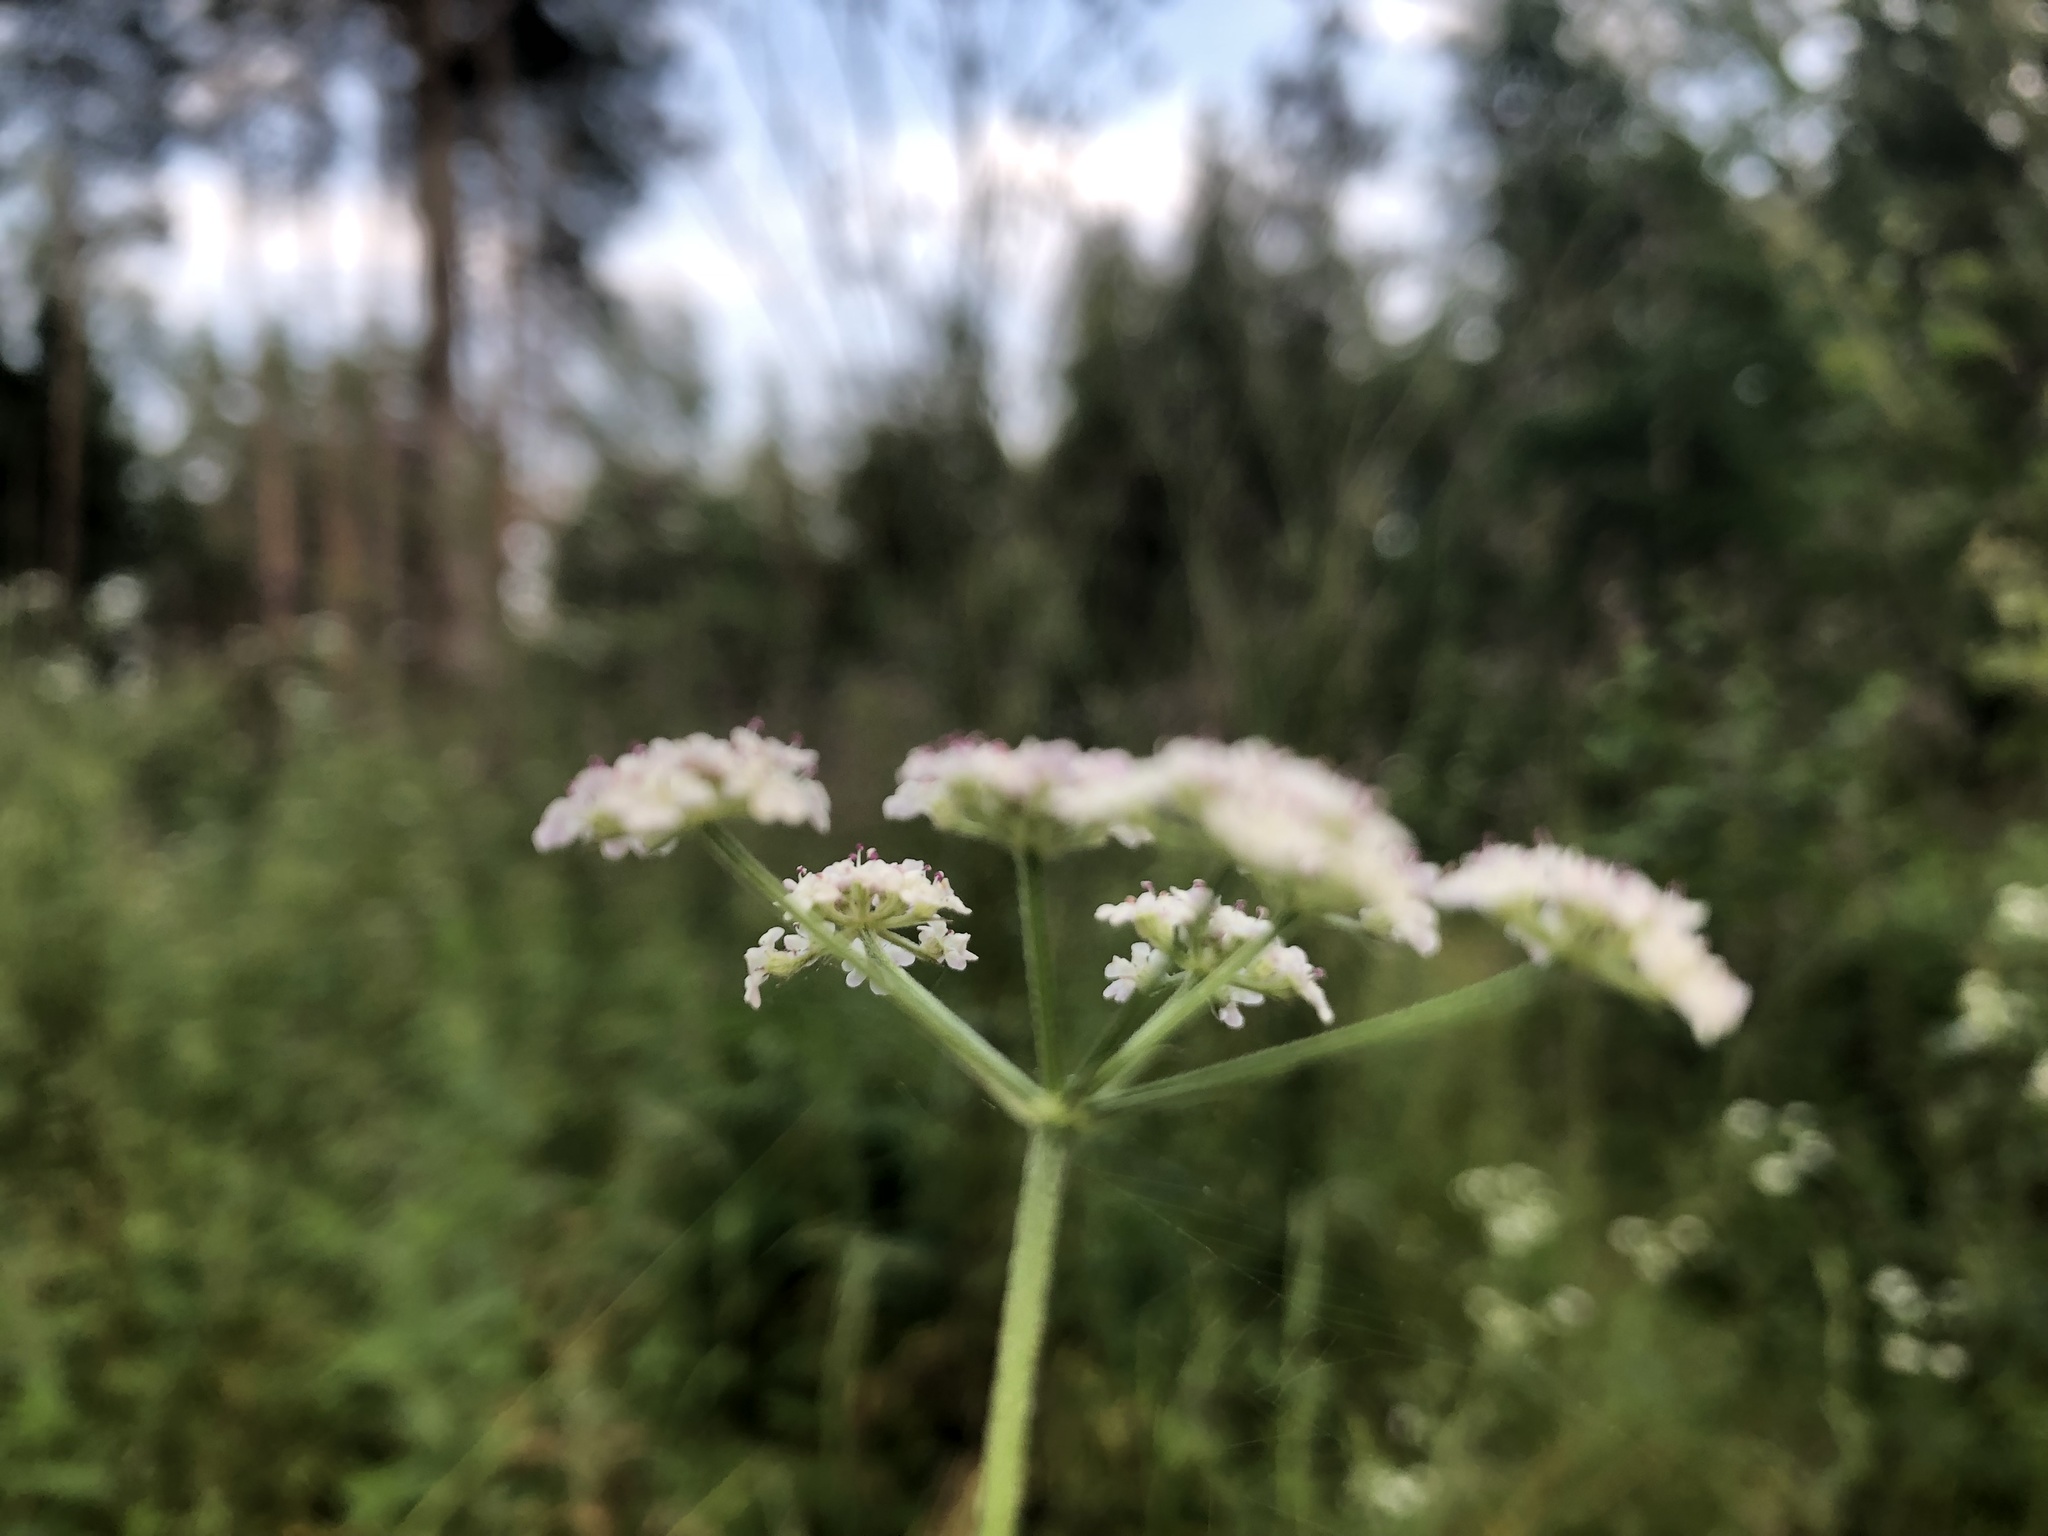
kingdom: Plantae
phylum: Tracheophyta
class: Magnoliopsida
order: Apiales
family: Apiaceae
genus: Torilis
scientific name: Torilis japonica
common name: Upright hedge-parsley
